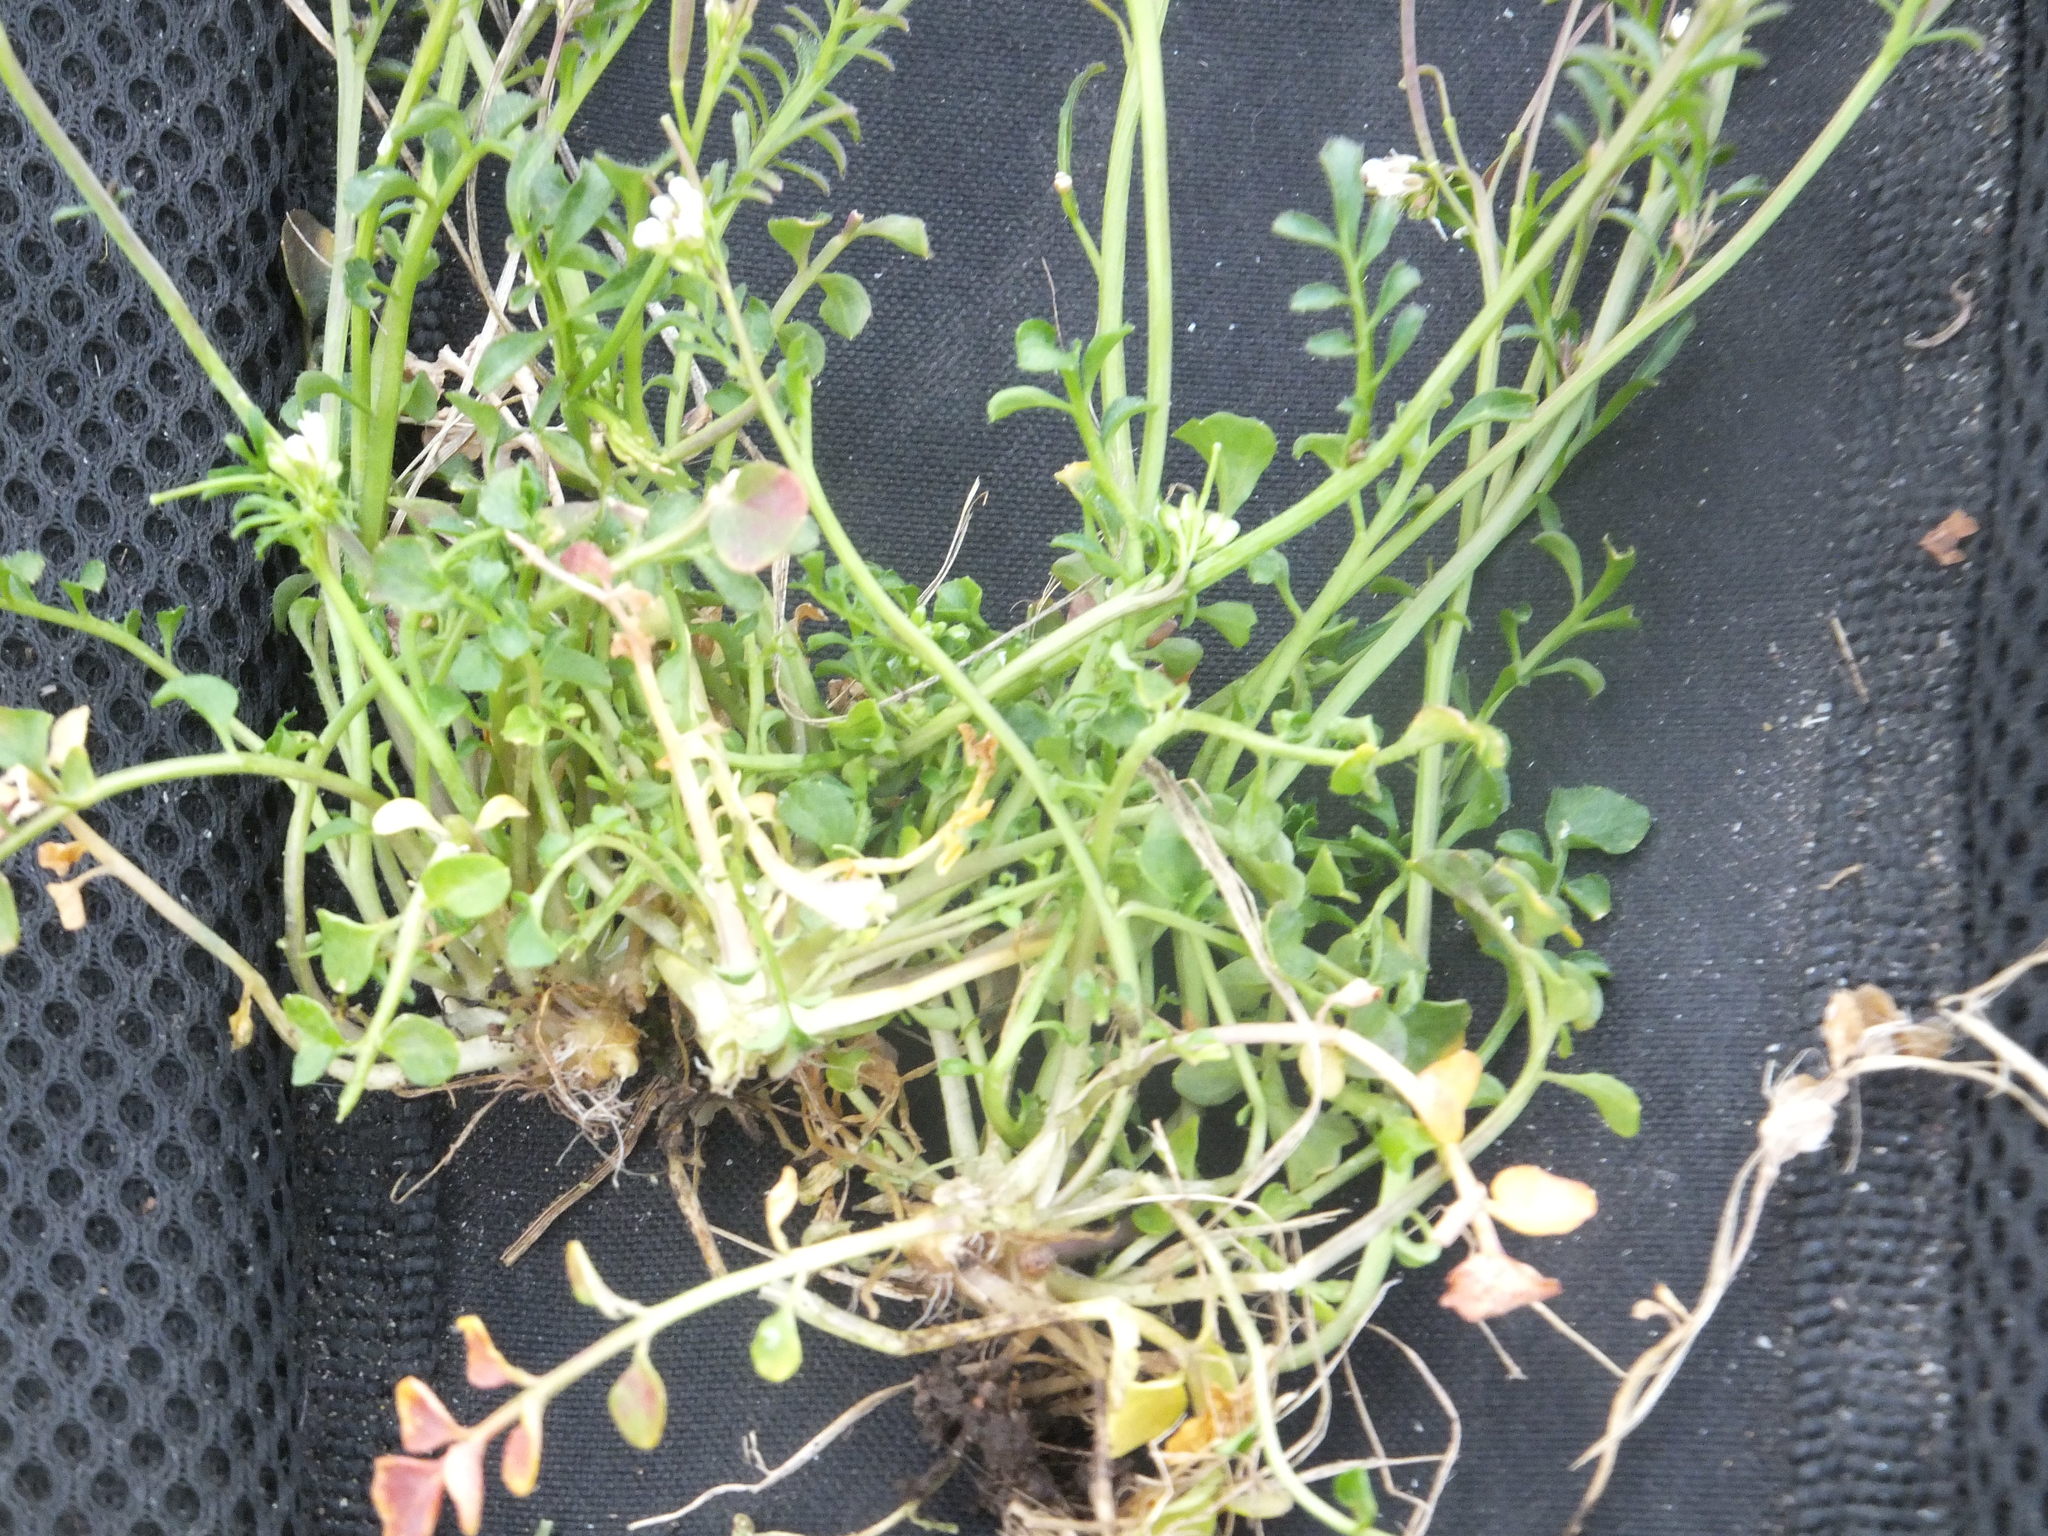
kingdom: Plantae
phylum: Tracheophyta
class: Magnoliopsida
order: Brassicales
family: Brassicaceae
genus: Cardamine
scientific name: Cardamine hirsuta
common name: Hairy bittercress
